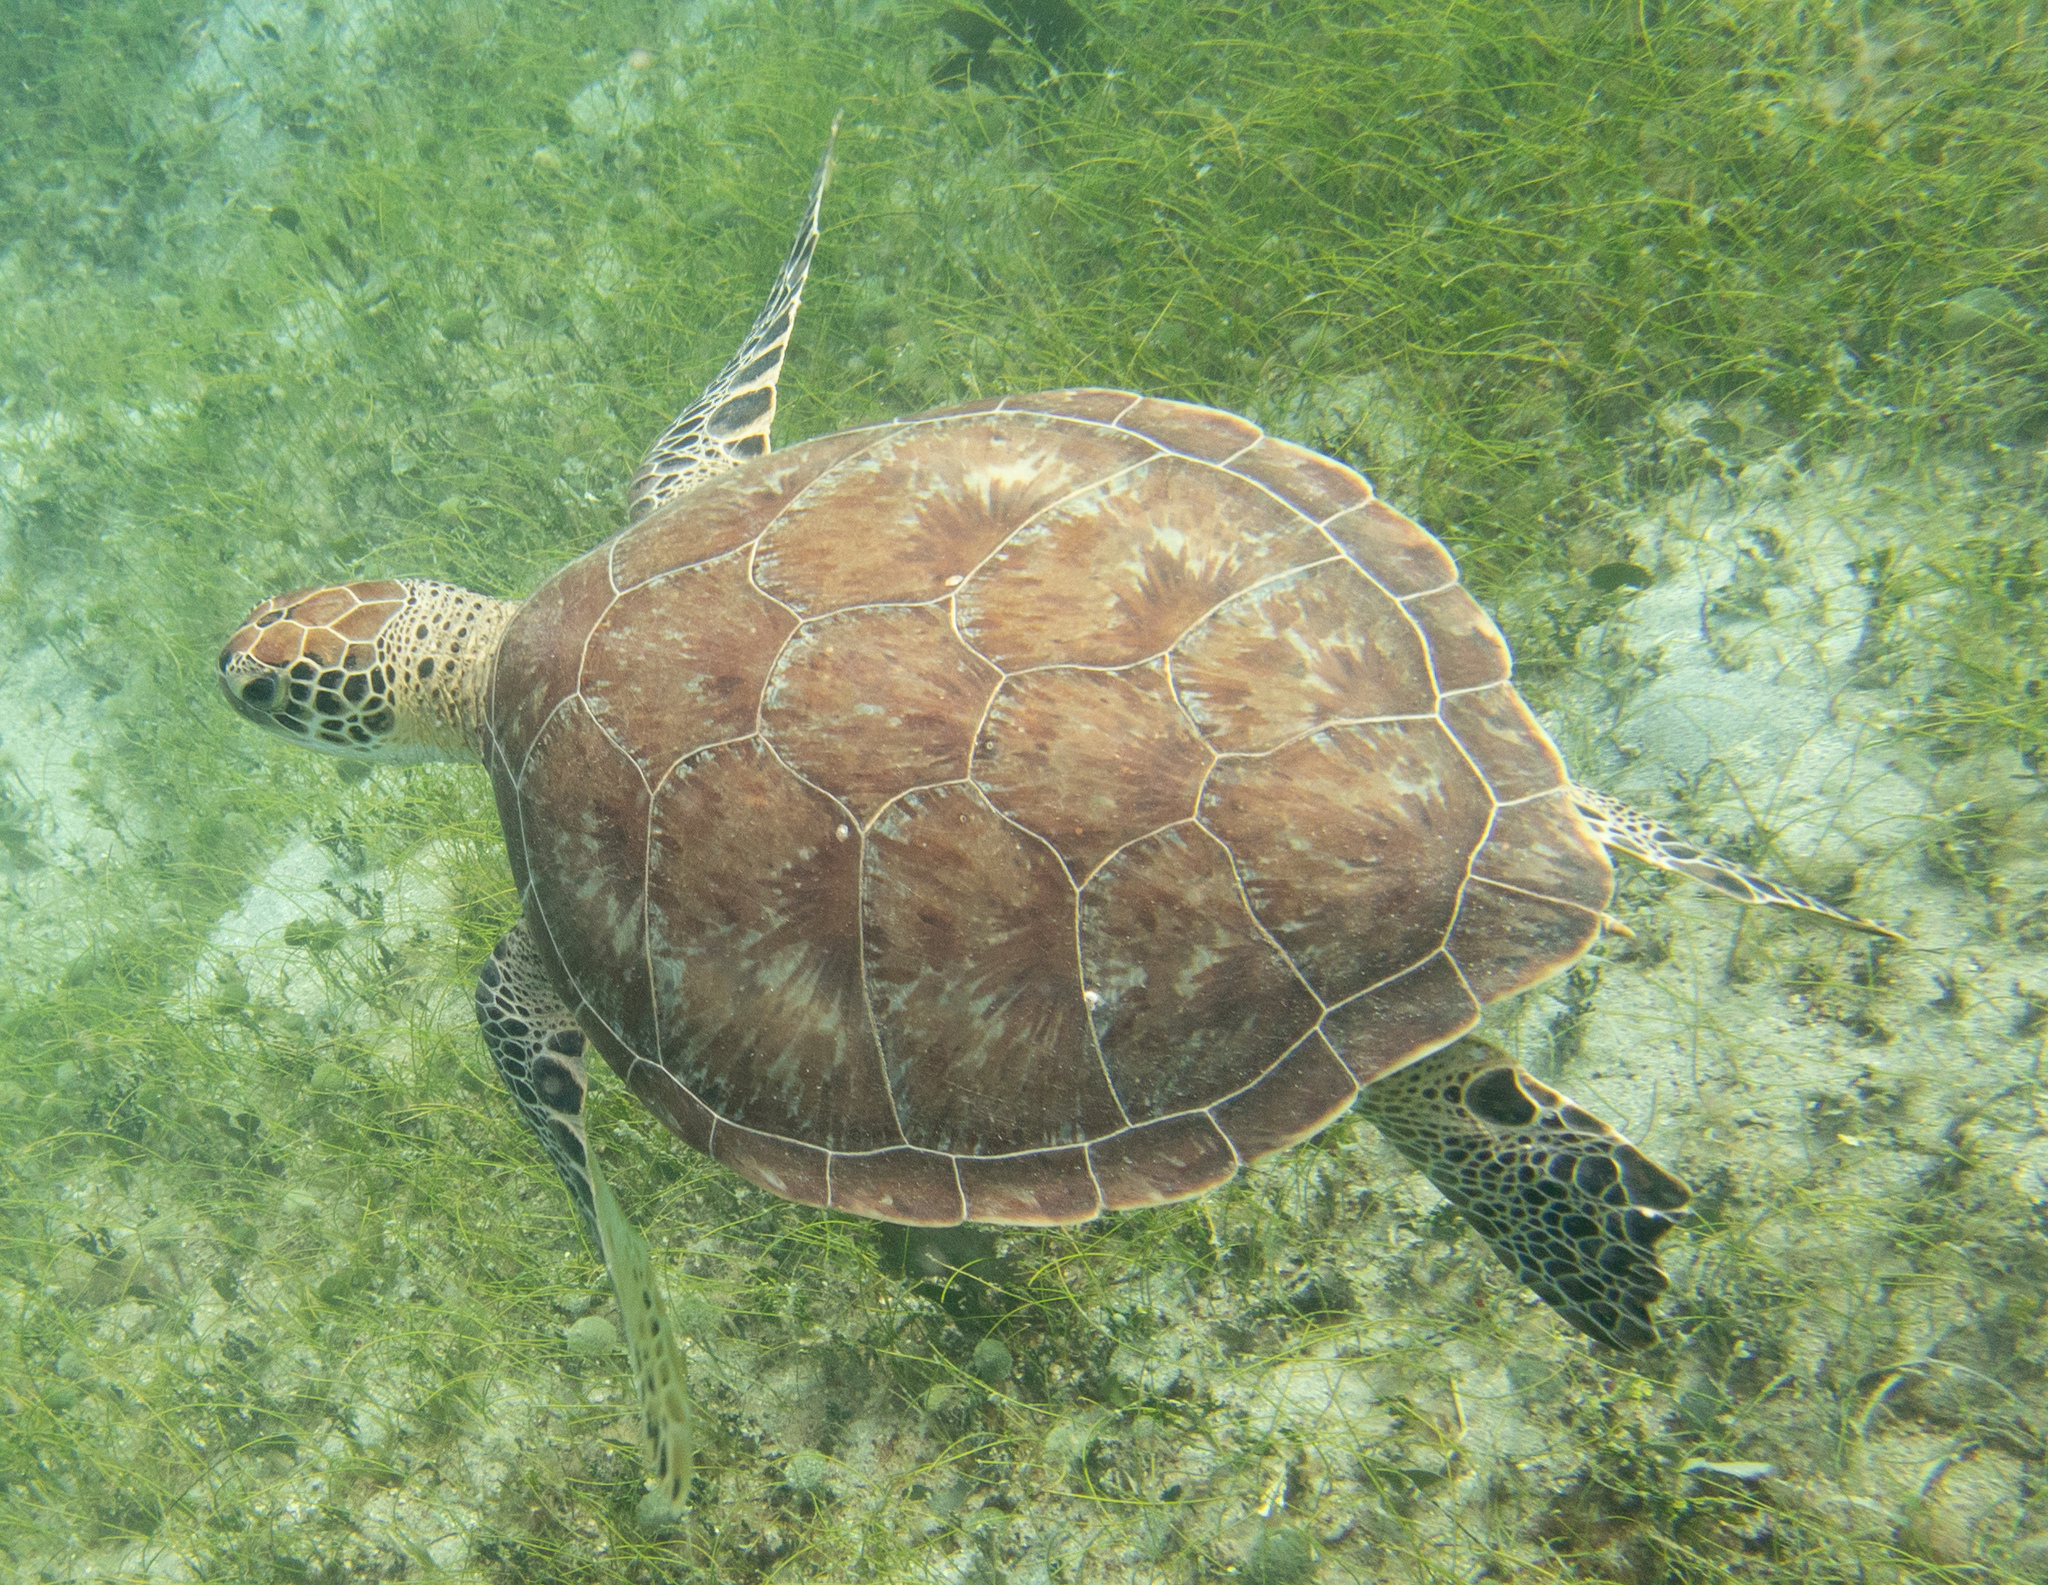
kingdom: Animalia
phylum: Chordata
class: Testudines
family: Cheloniidae
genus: Chelonia
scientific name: Chelonia mydas
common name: Green turtle
